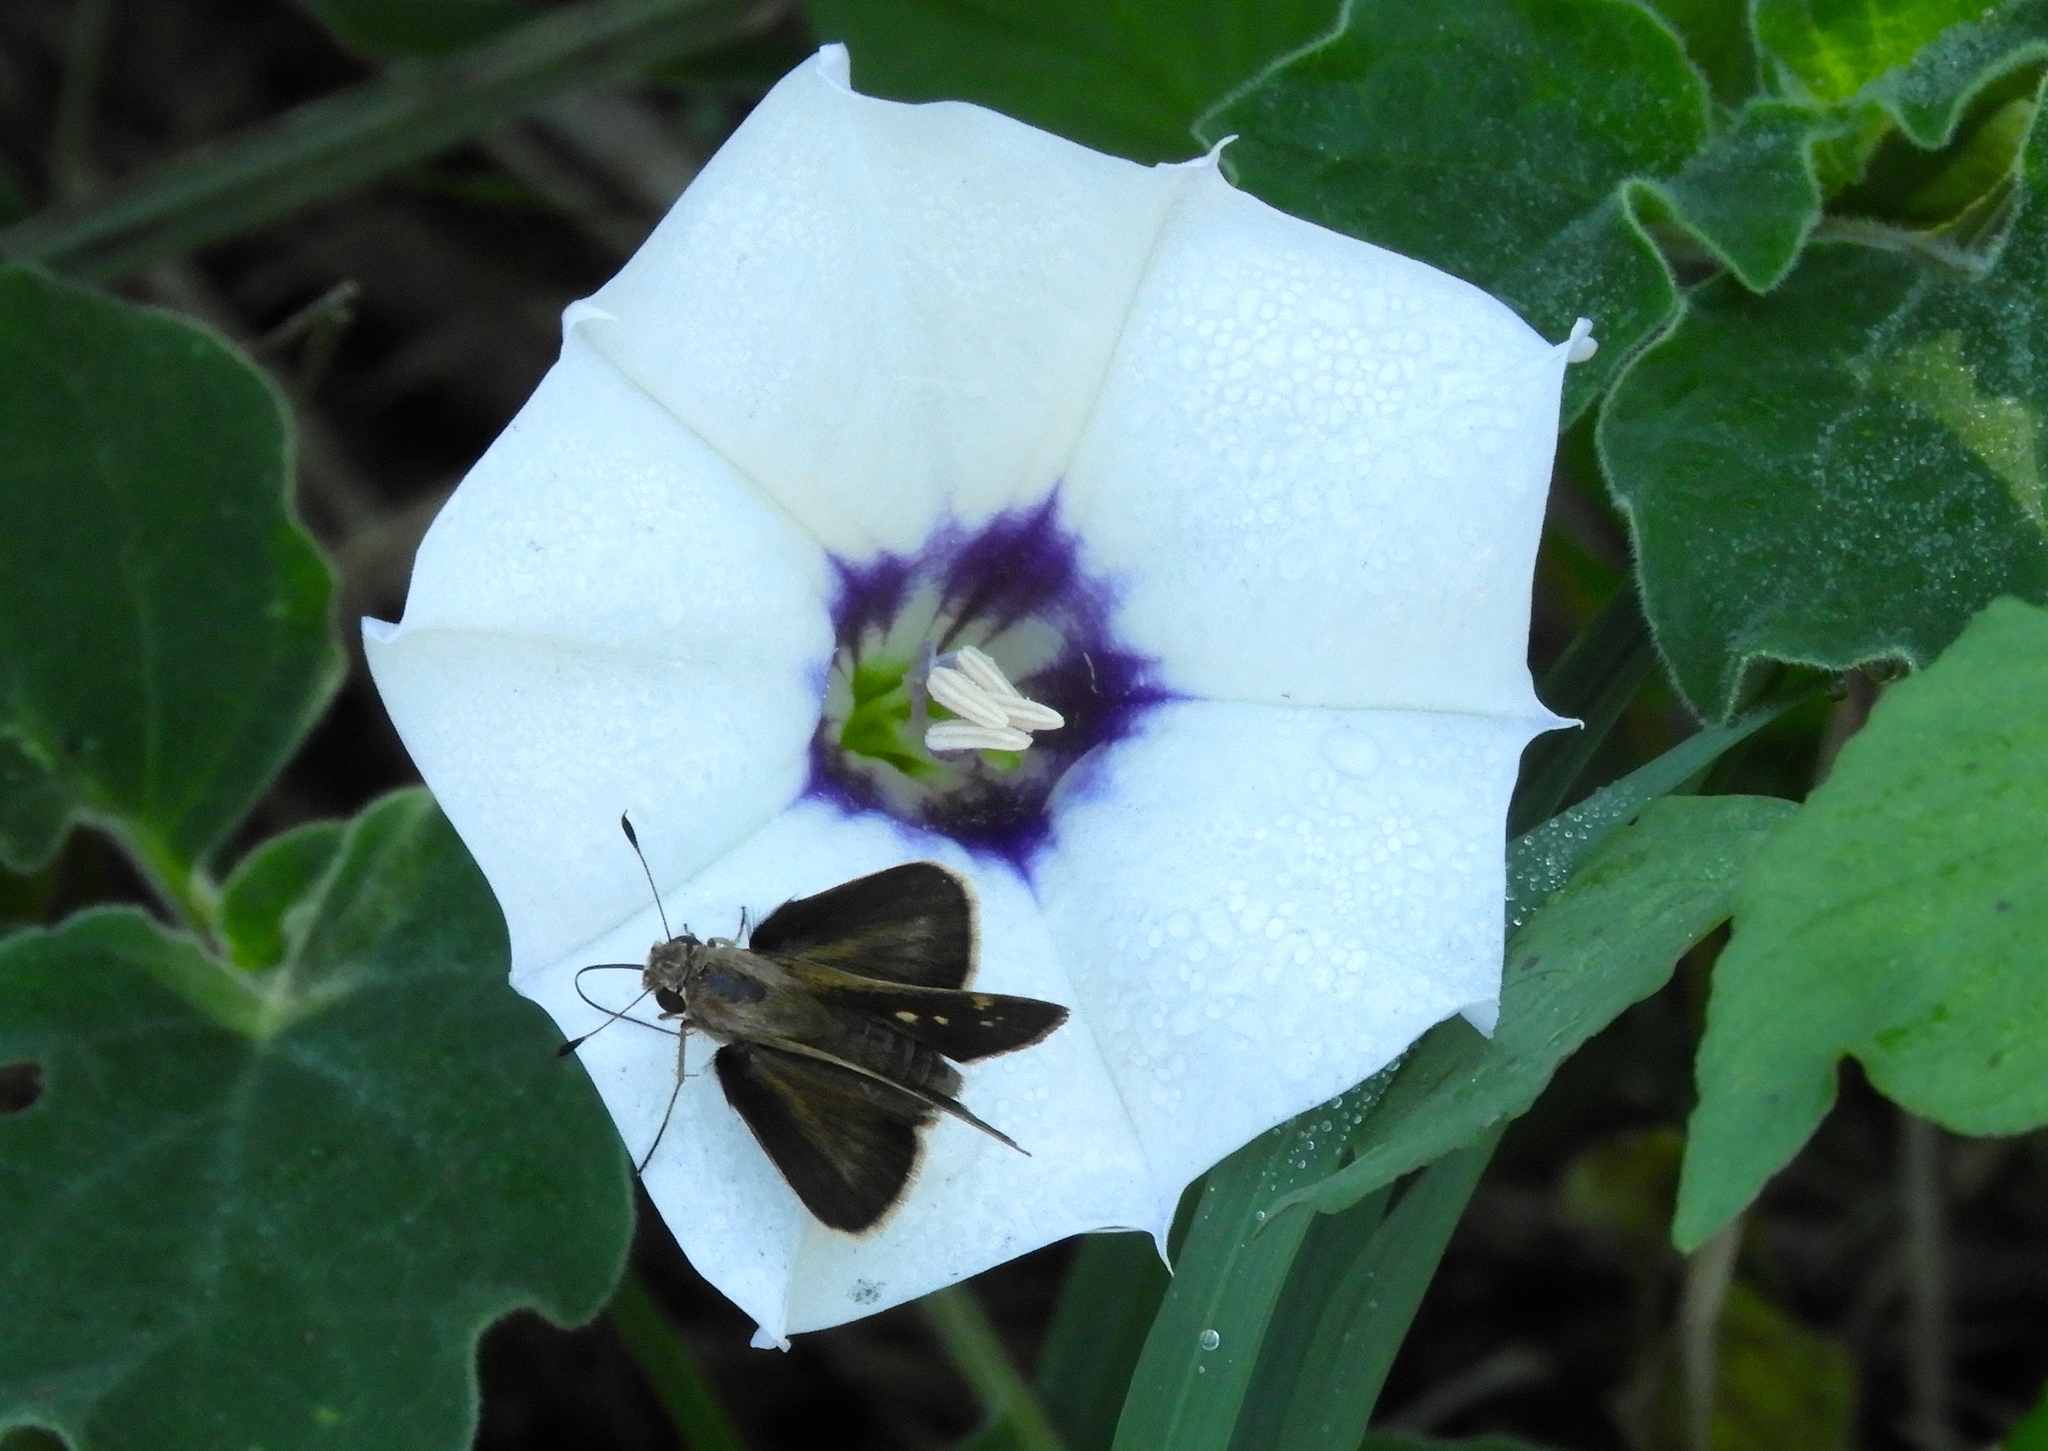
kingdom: Animalia
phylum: Arthropoda
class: Insecta
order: Lepidoptera
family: Hesperiidae
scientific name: Hesperiidae
